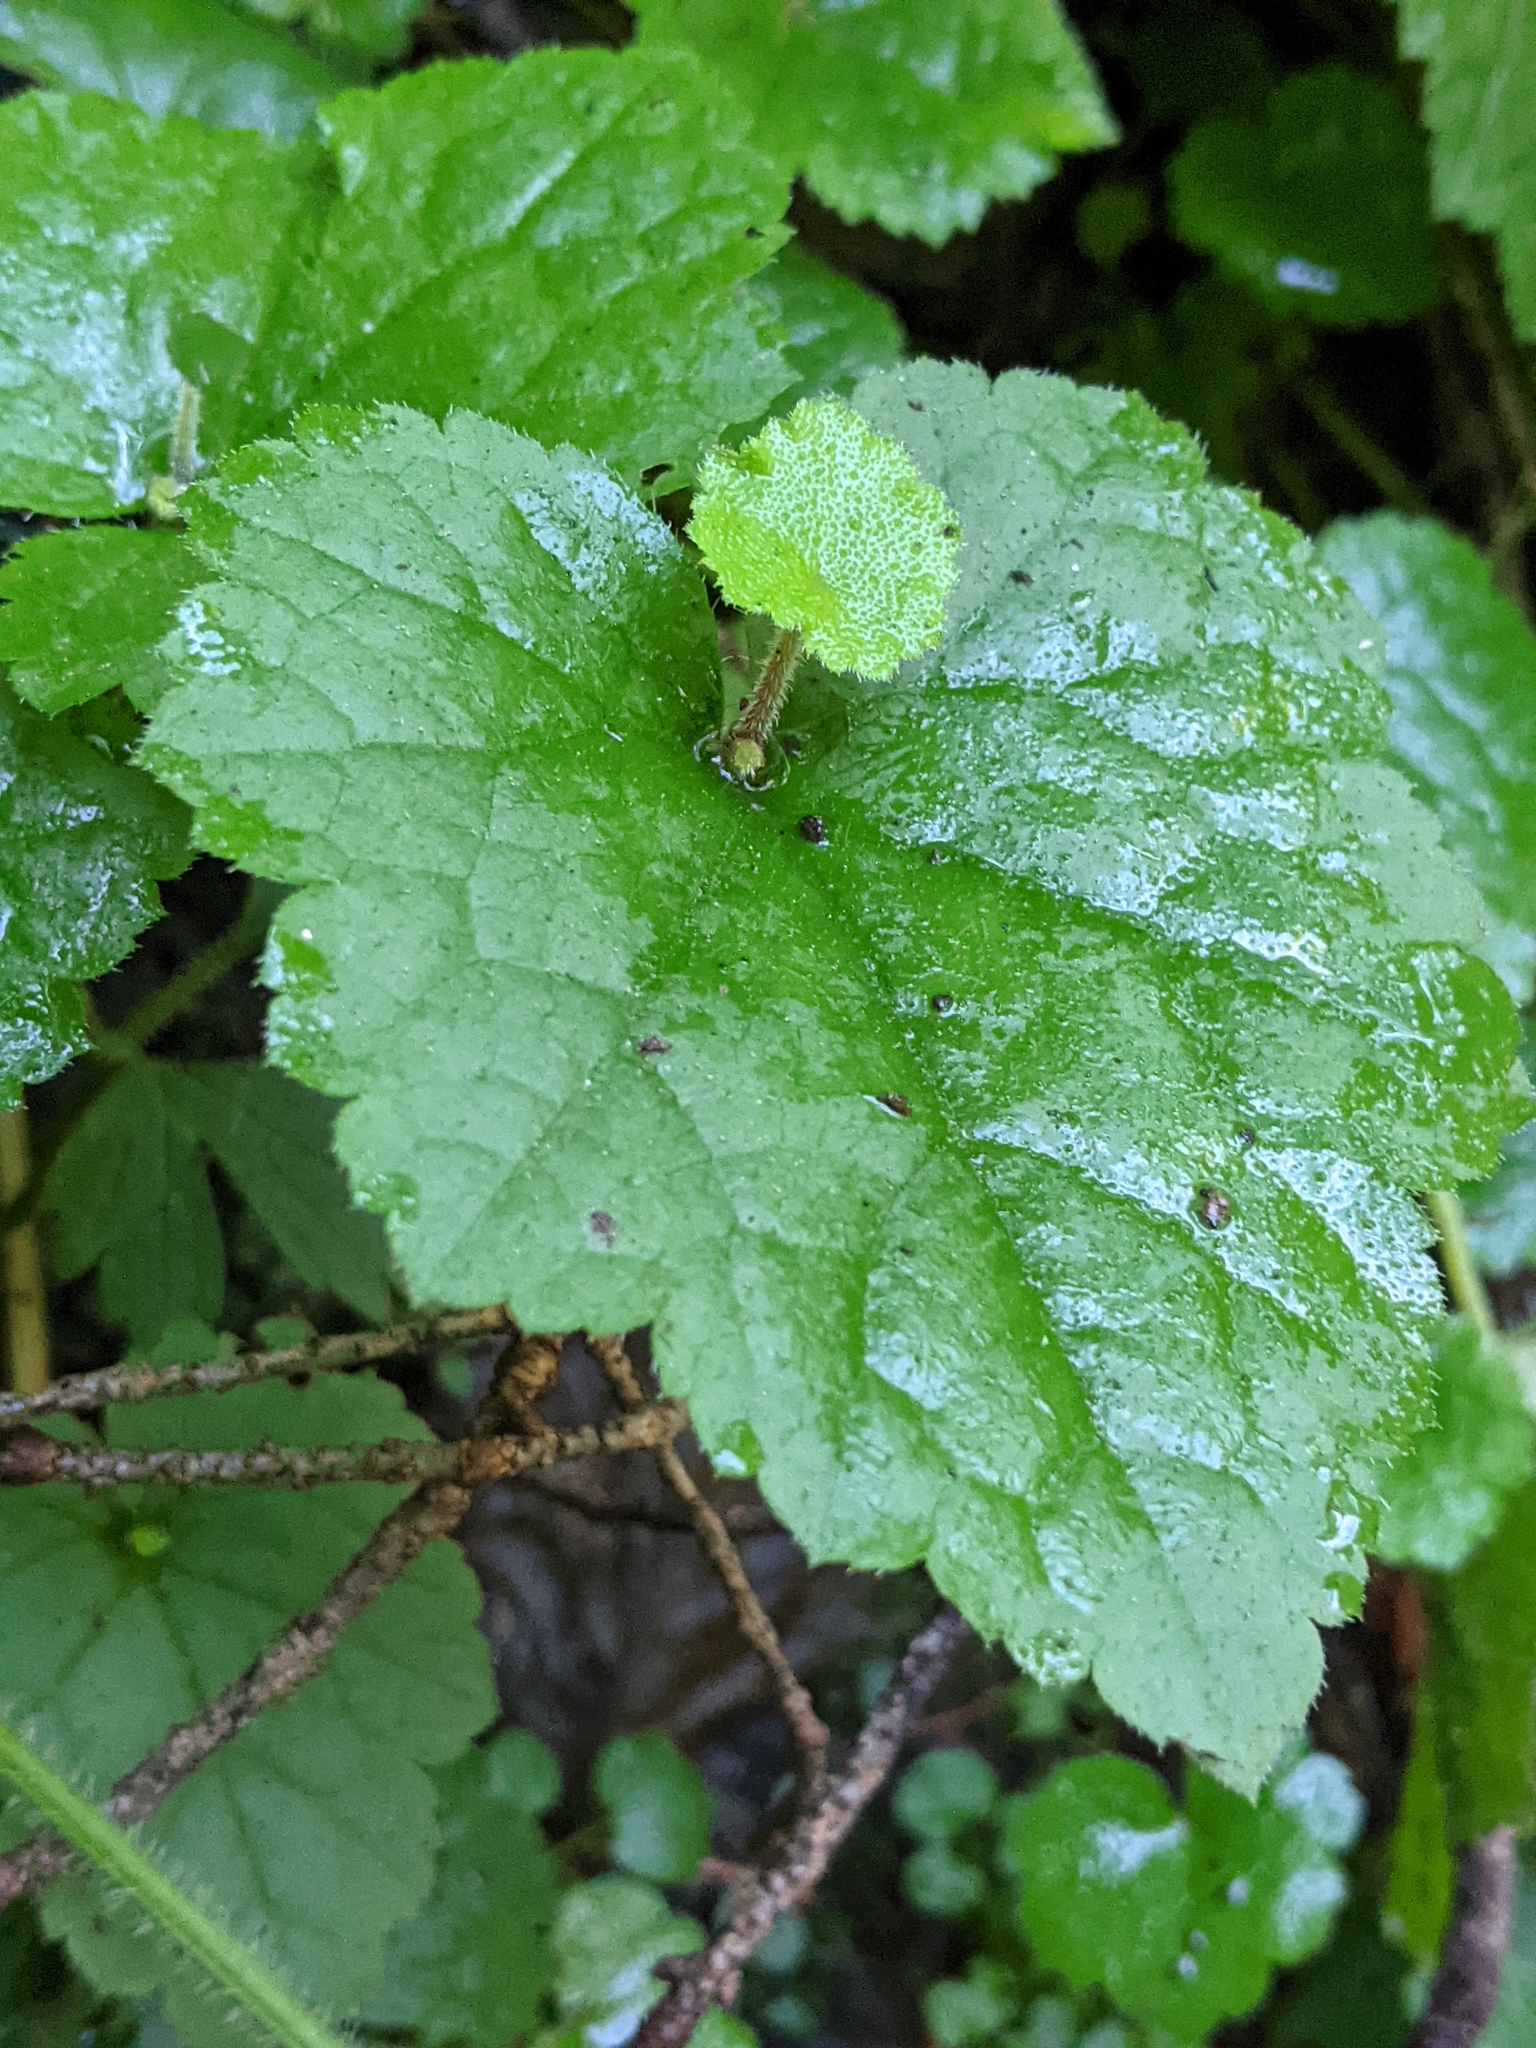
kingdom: Plantae
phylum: Tracheophyta
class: Magnoliopsida
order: Saxifragales
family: Saxifragaceae
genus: Tolmiea
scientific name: Tolmiea menziesii
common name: Pick-a-back-plant
